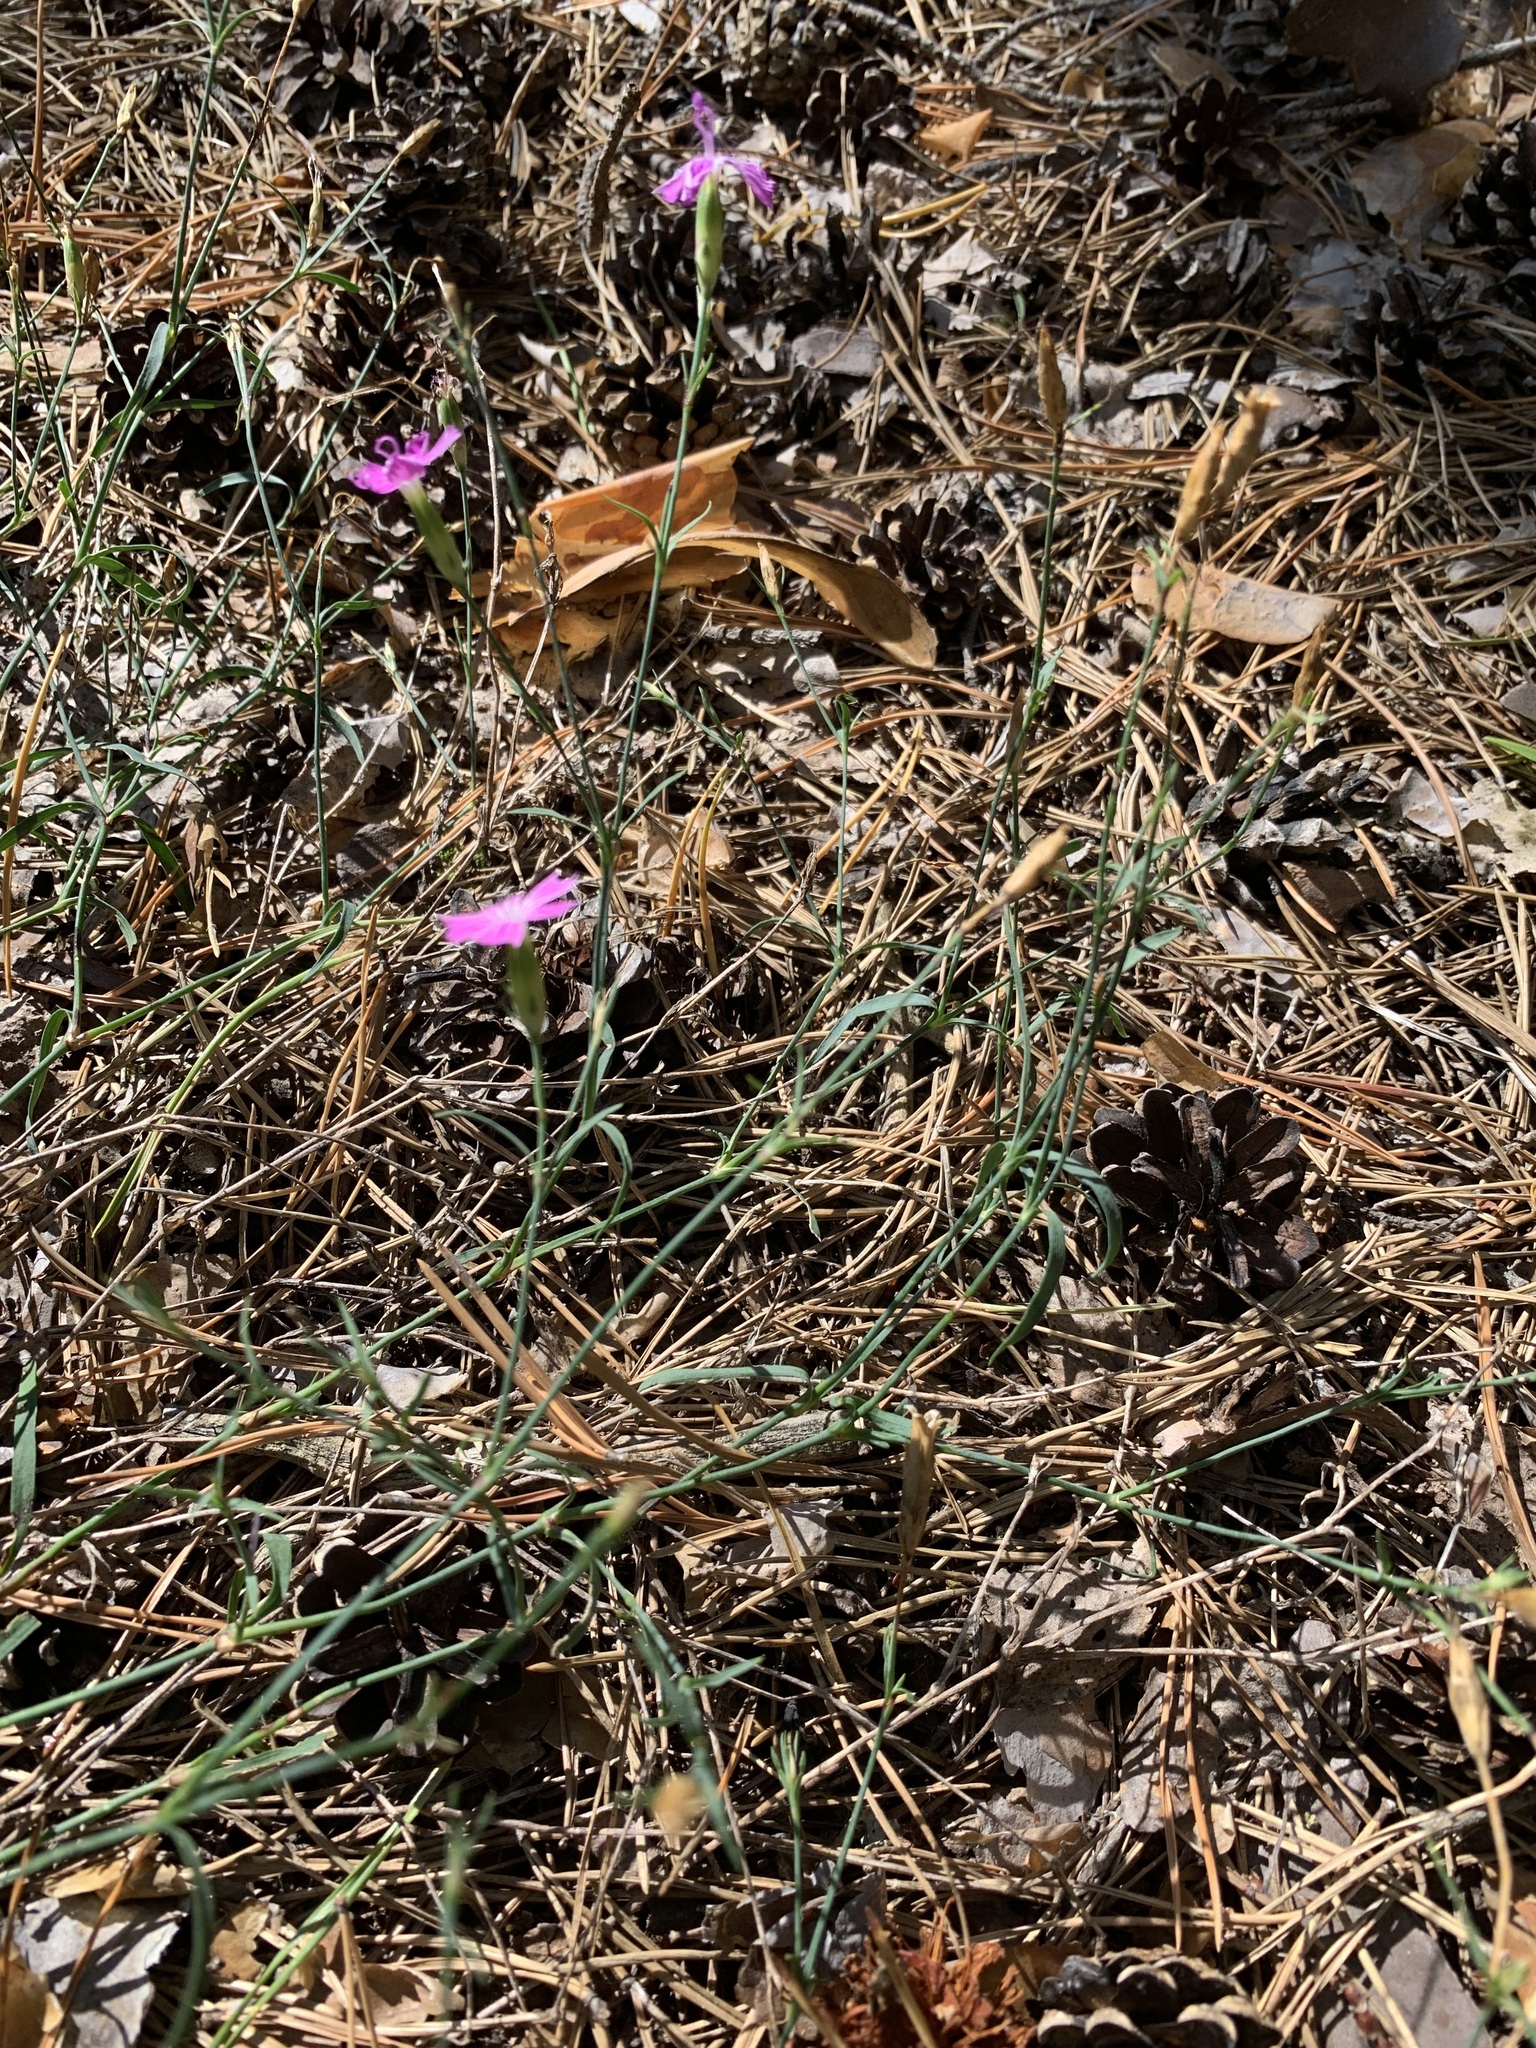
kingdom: Plantae
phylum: Tracheophyta
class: Magnoliopsida
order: Caryophyllales
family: Caryophyllaceae
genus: Dianthus
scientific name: Dianthus chinensis
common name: Rainbow pink
